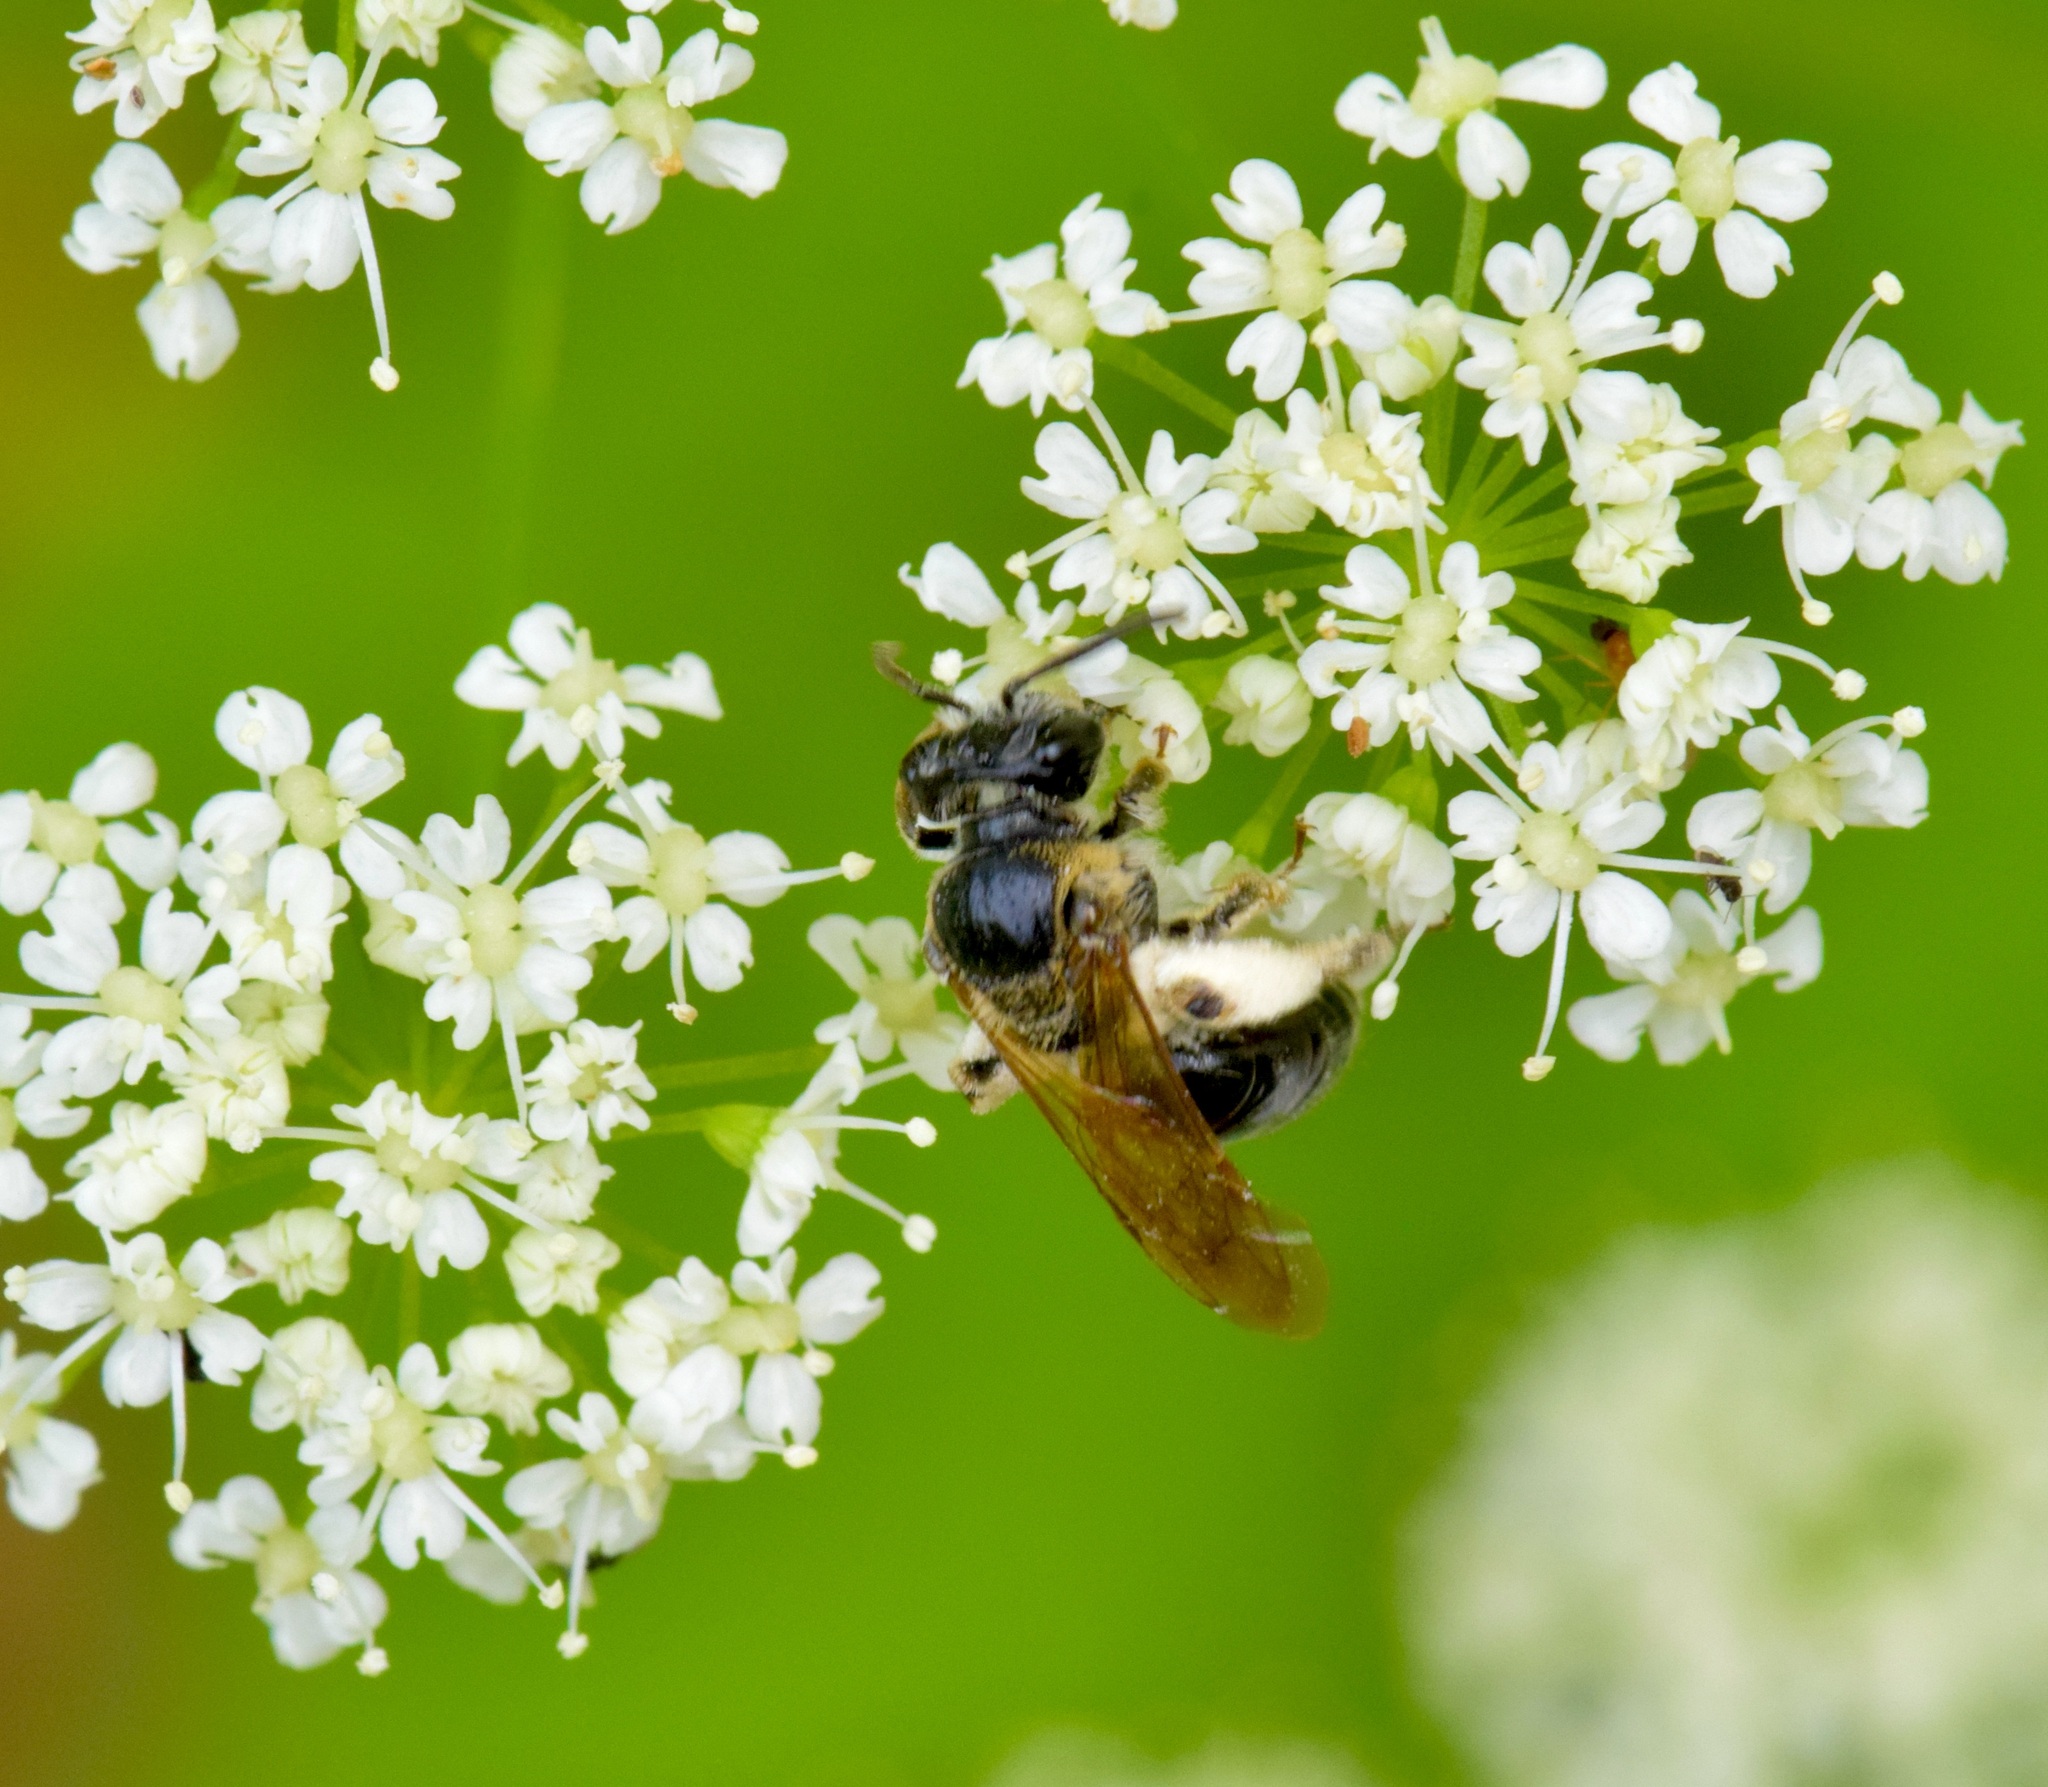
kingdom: Animalia
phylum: Arthropoda
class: Insecta
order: Hymenoptera
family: Andrenidae
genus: Andrena
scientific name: Andrena nuda
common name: Nude mining bee
